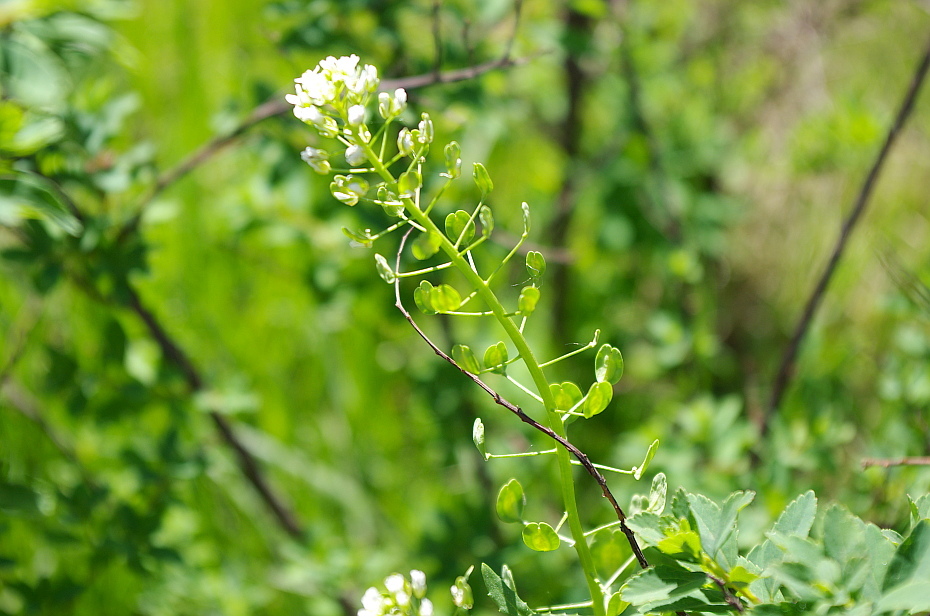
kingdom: Plantae
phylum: Tracheophyta
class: Magnoliopsida
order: Brassicales
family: Brassicaceae
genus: Thlaspi
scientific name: Thlaspi arvense
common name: Field pennycress
